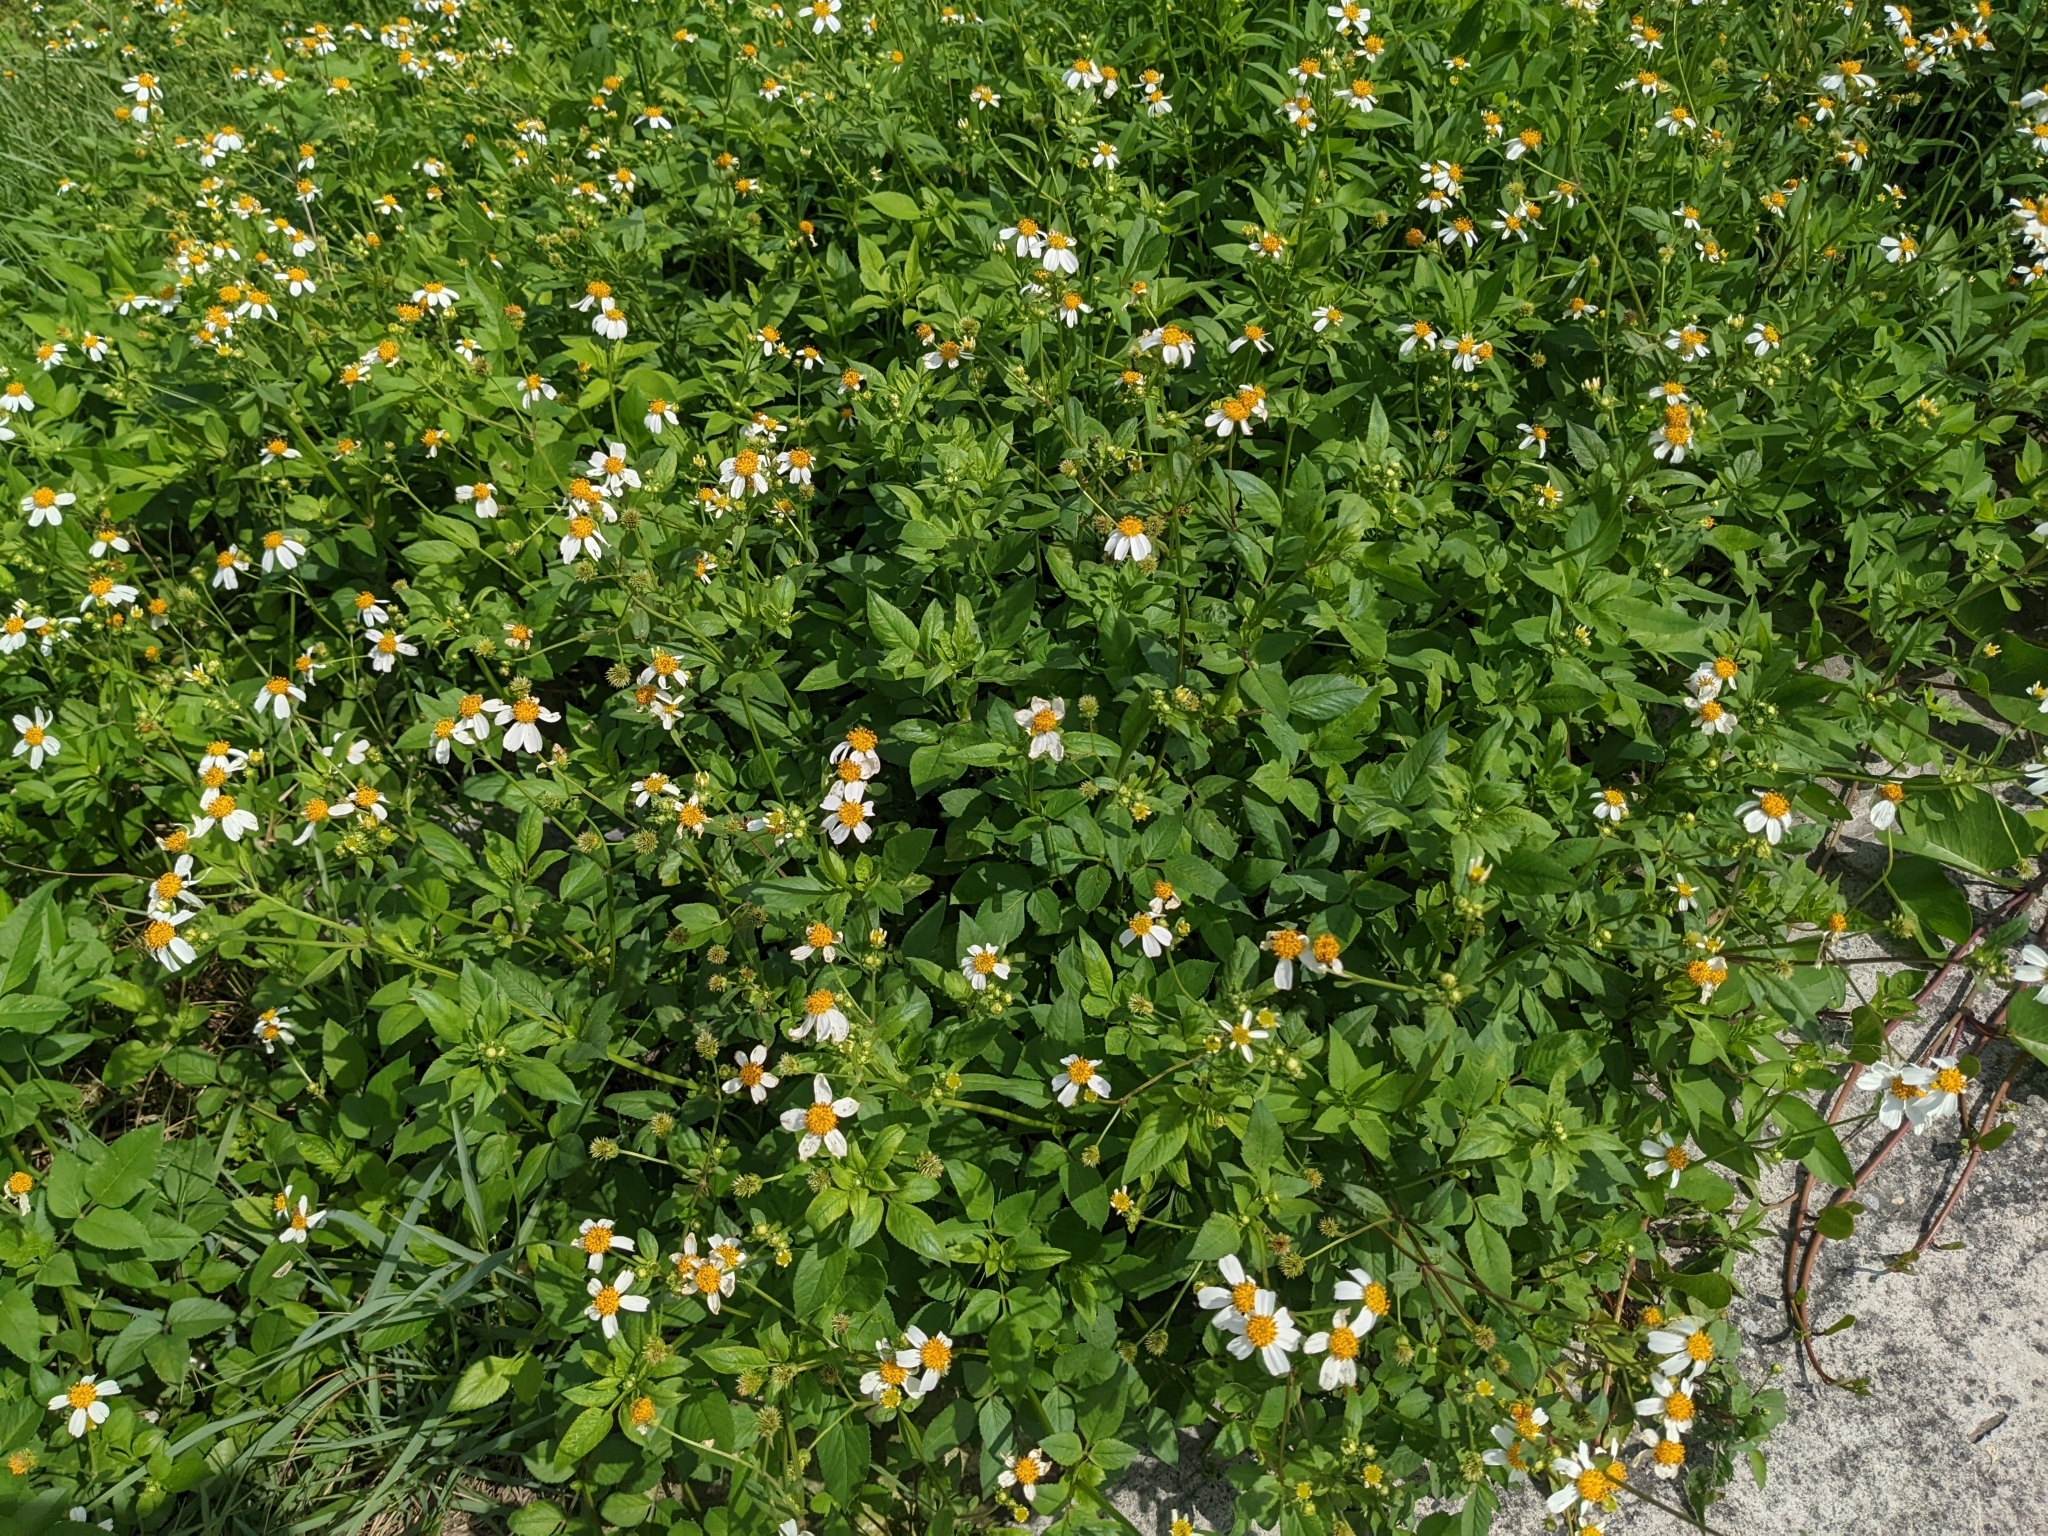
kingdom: Plantae
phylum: Tracheophyta
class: Magnoliopsida
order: Asterales
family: Asteraceae
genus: Bidens
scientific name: Bidens alba
